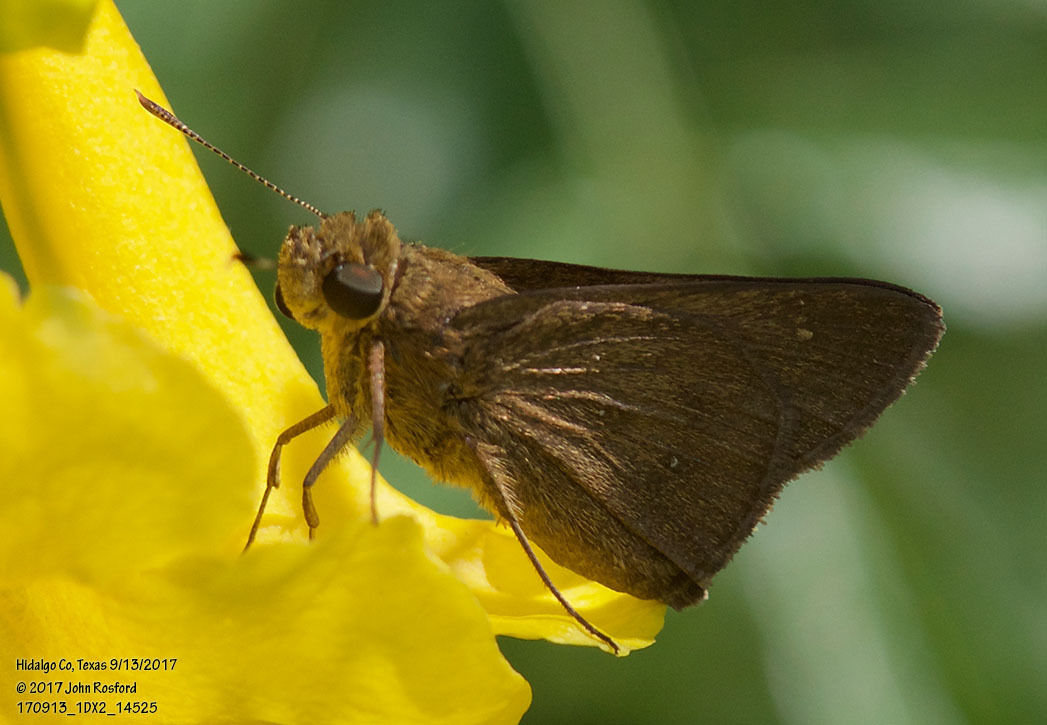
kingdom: Animalia
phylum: Arthropoda
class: Insecta
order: Lepidoptera
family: Hesperiidae
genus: Decinea
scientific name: Decinea percosius
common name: Double-dotted skipper
